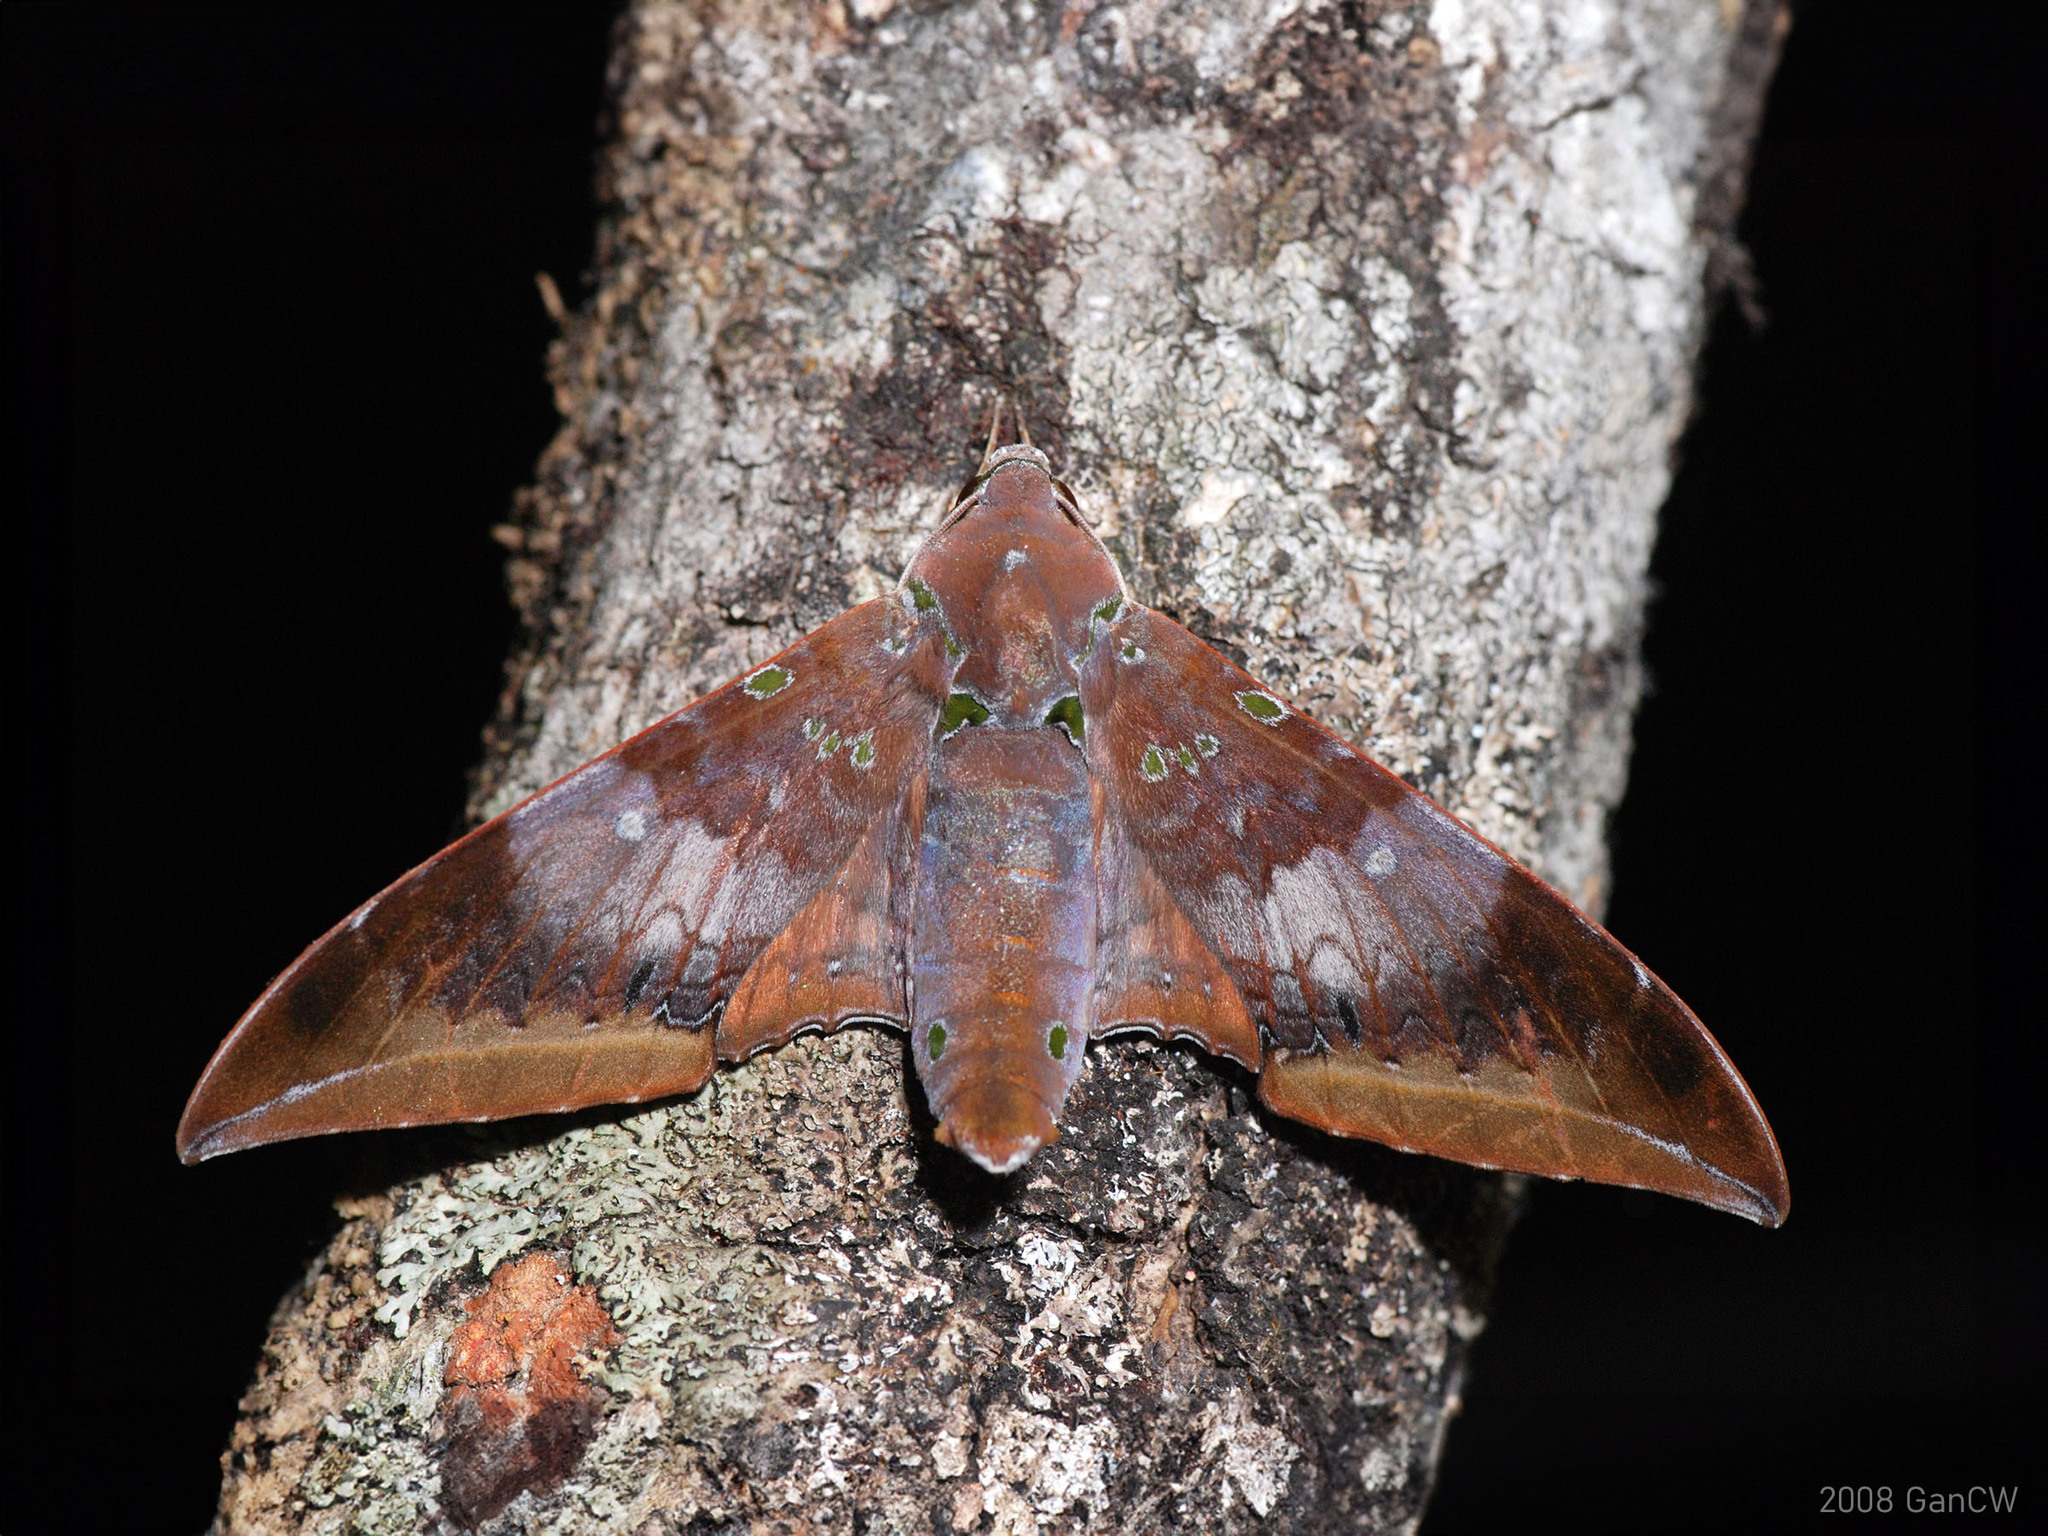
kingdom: Animalia
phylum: Arthropoda
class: Insecta
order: Lepidoptera
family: Sphingidae
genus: Ambulyx
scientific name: Ambulyx moorei
